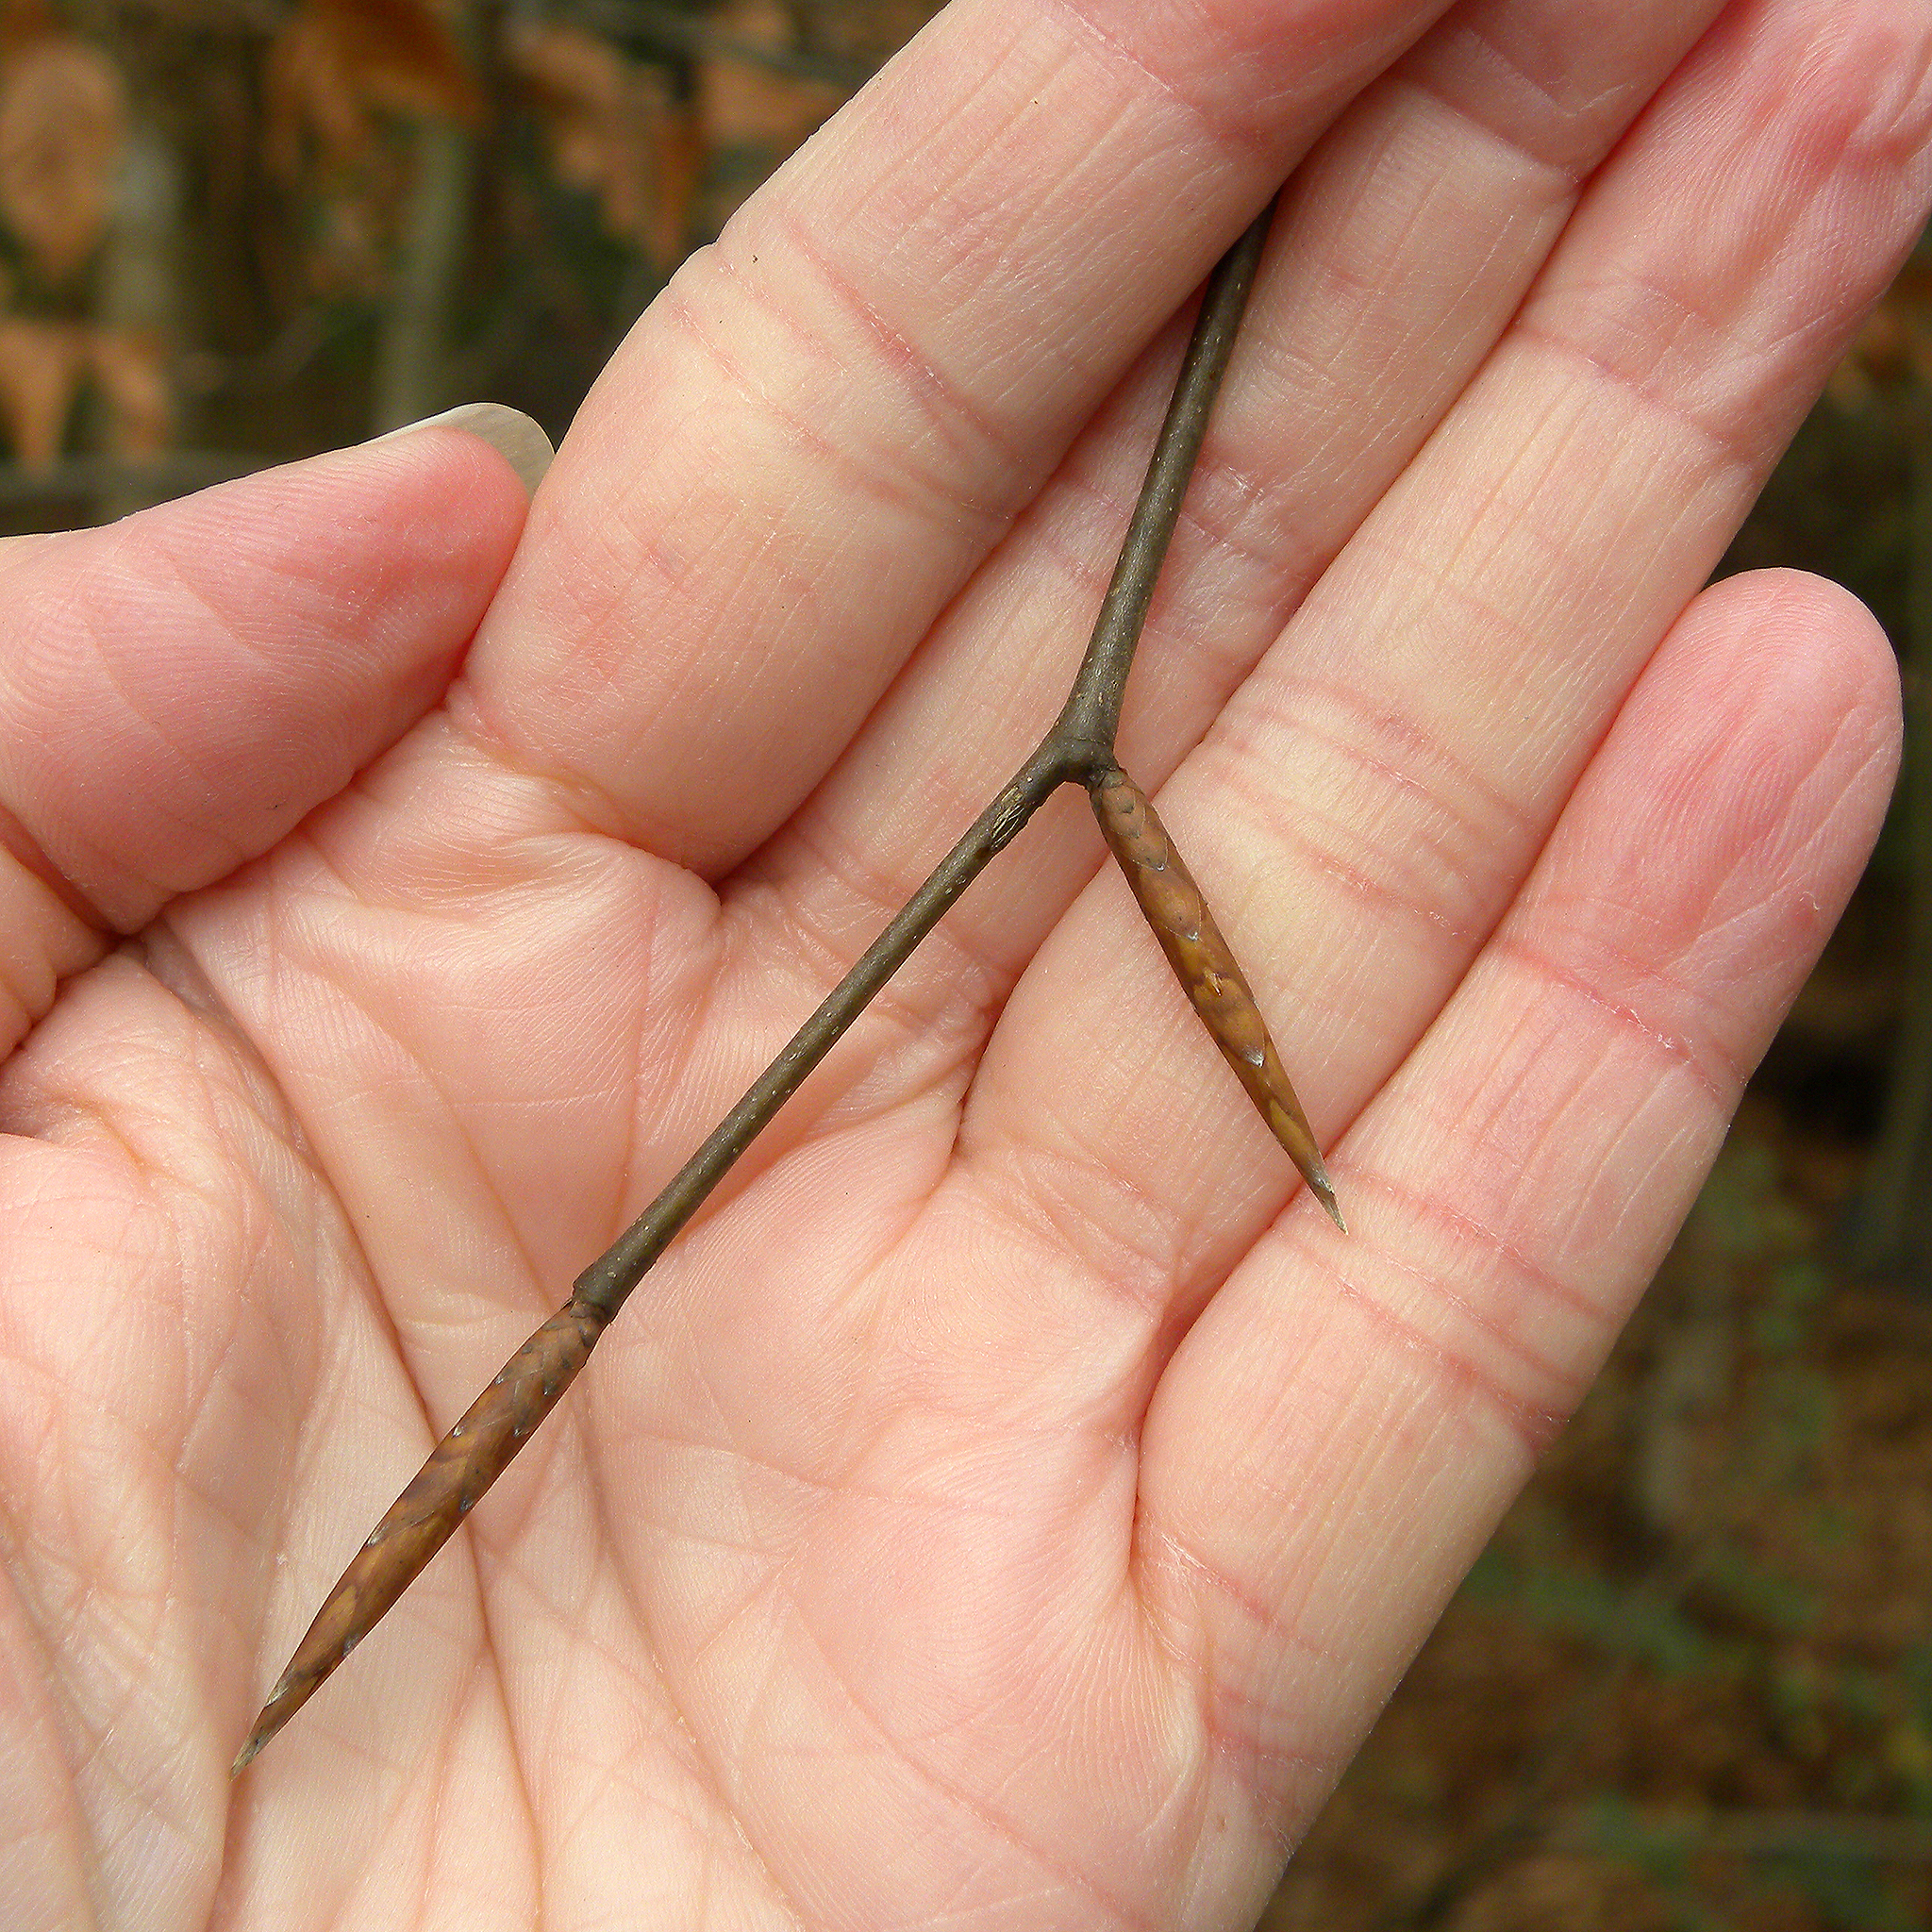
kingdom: Plantae
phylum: Tracheophyta
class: Magnoliopsida
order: Fagales
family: Fagaceae
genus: Fagus
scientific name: Fagus grandifolia
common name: American beech
